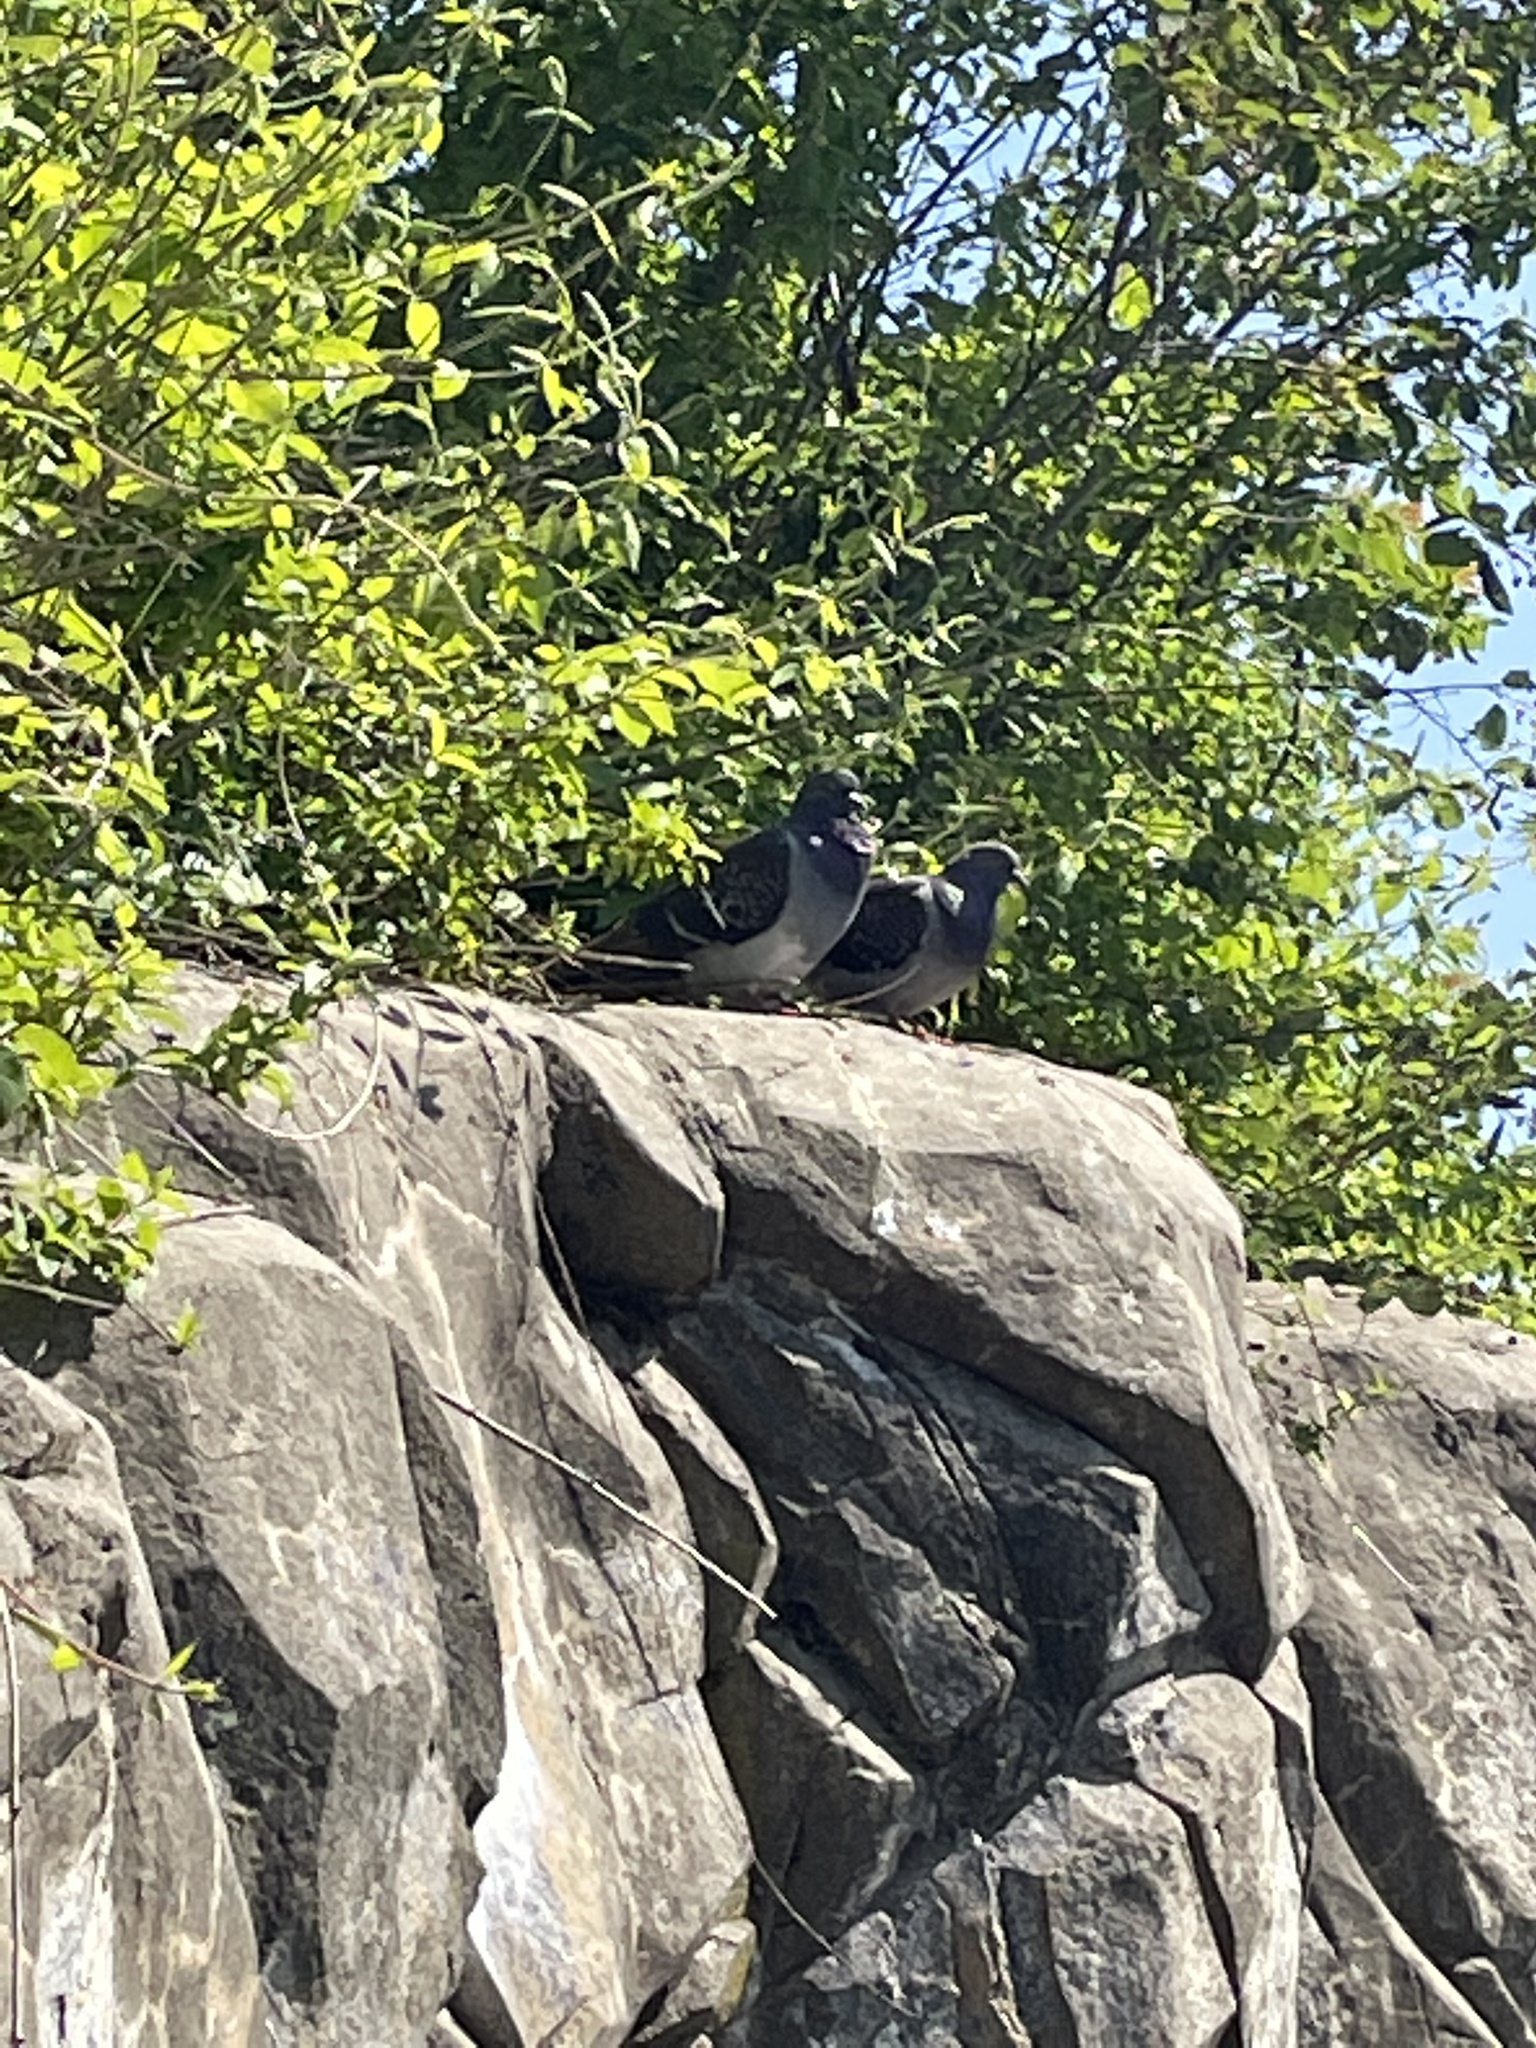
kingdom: Animalia
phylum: Chordata
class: Aves
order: Columbiformes
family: Columbidae
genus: Columba
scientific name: Columba livia
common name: Rock pigeon
